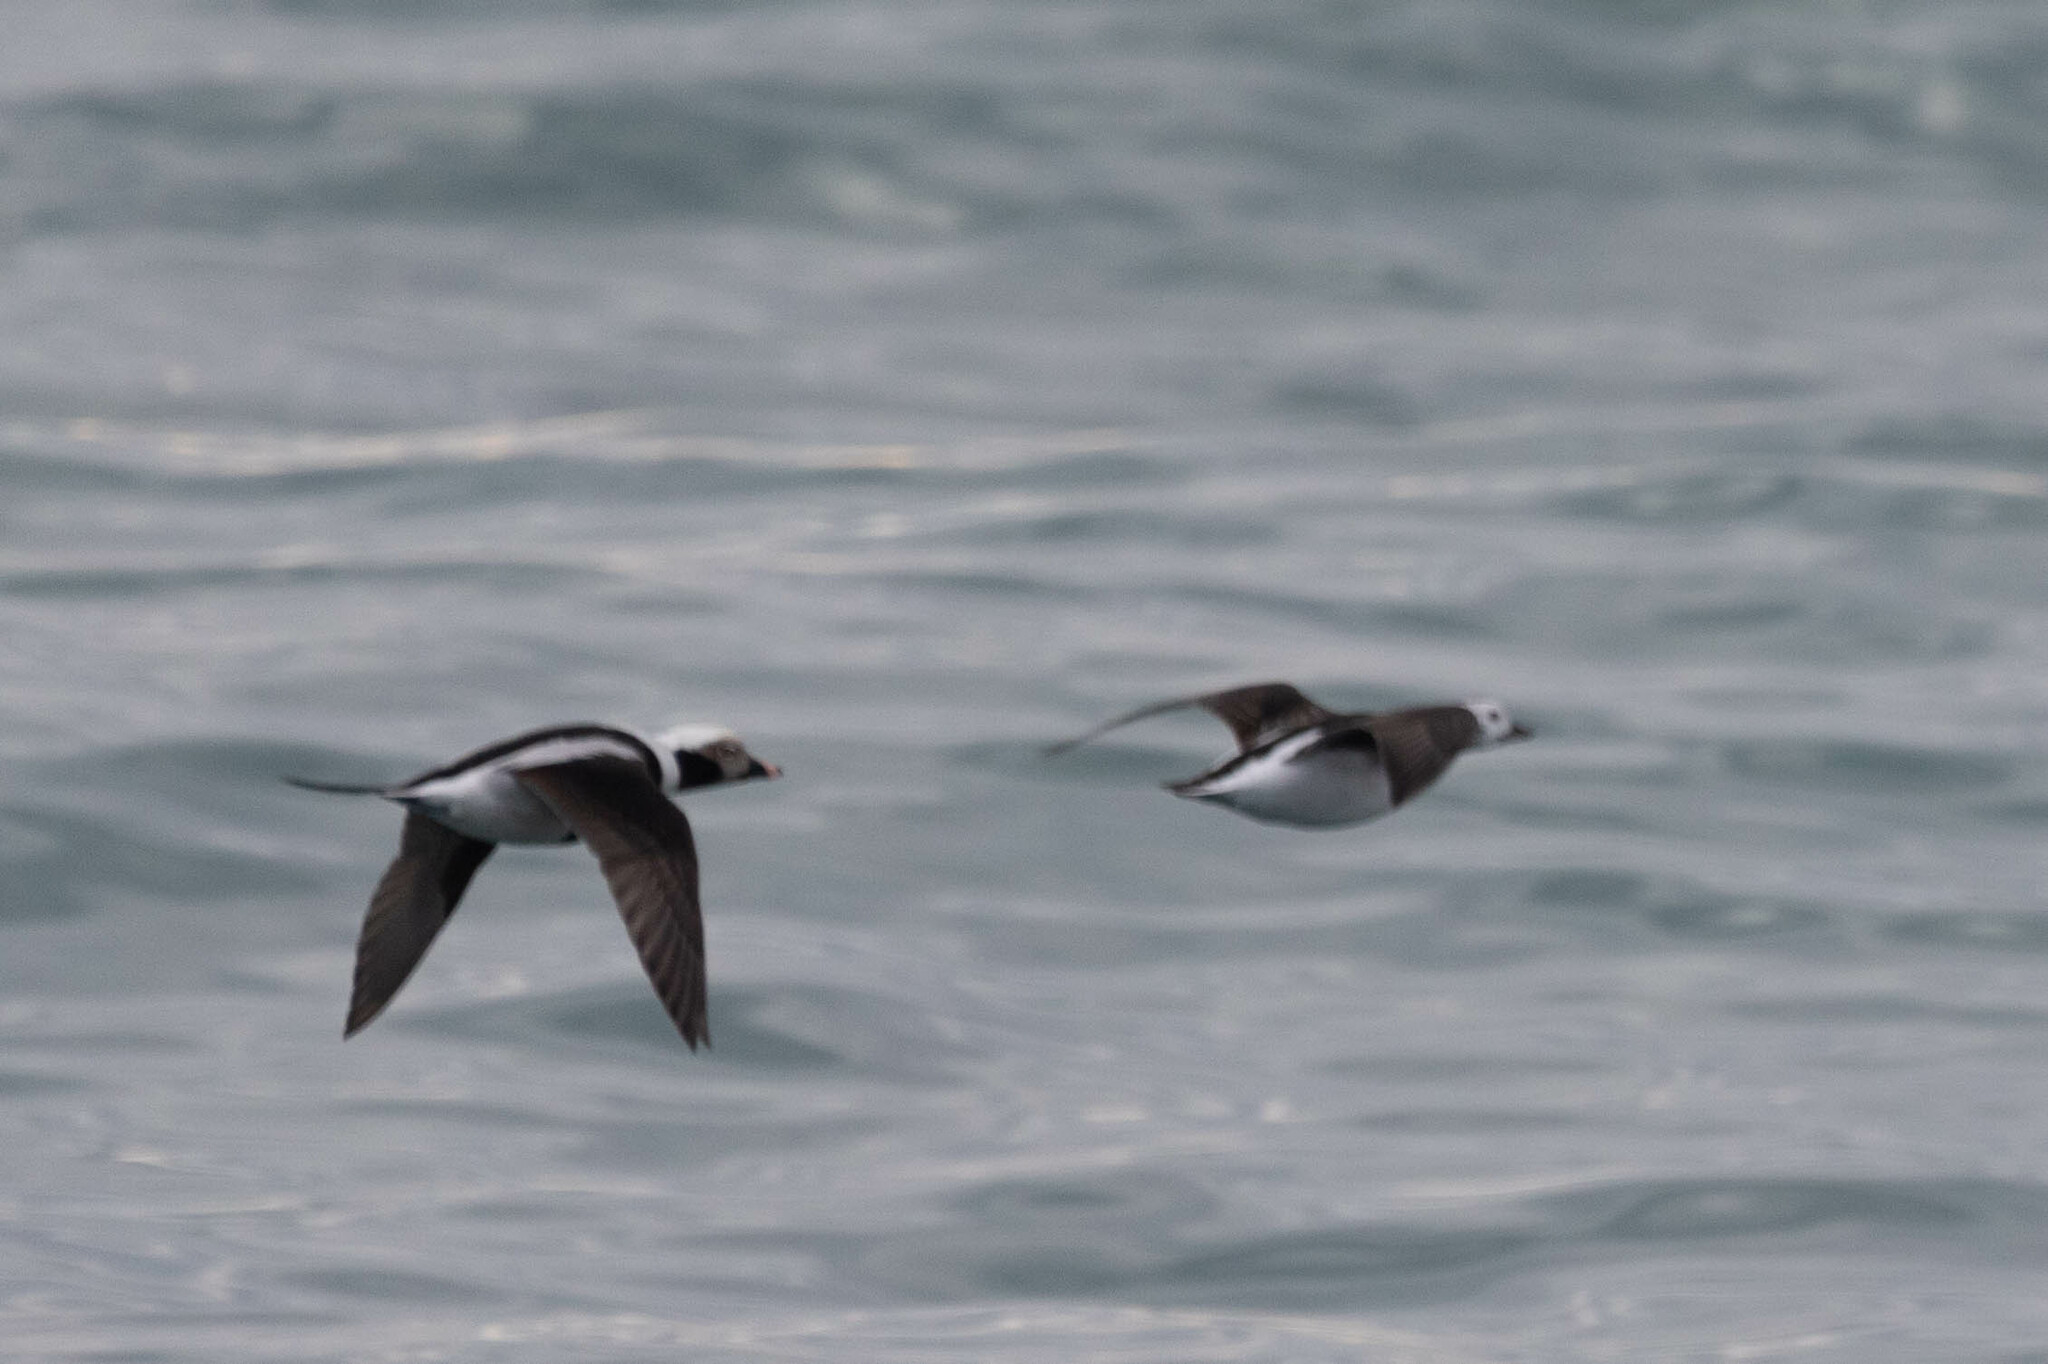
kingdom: Animalia
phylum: Chordata
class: Aves
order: Anseriformes
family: Anatidae
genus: Clangula
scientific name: Clangula hyemalis
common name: Long-tailed duck
